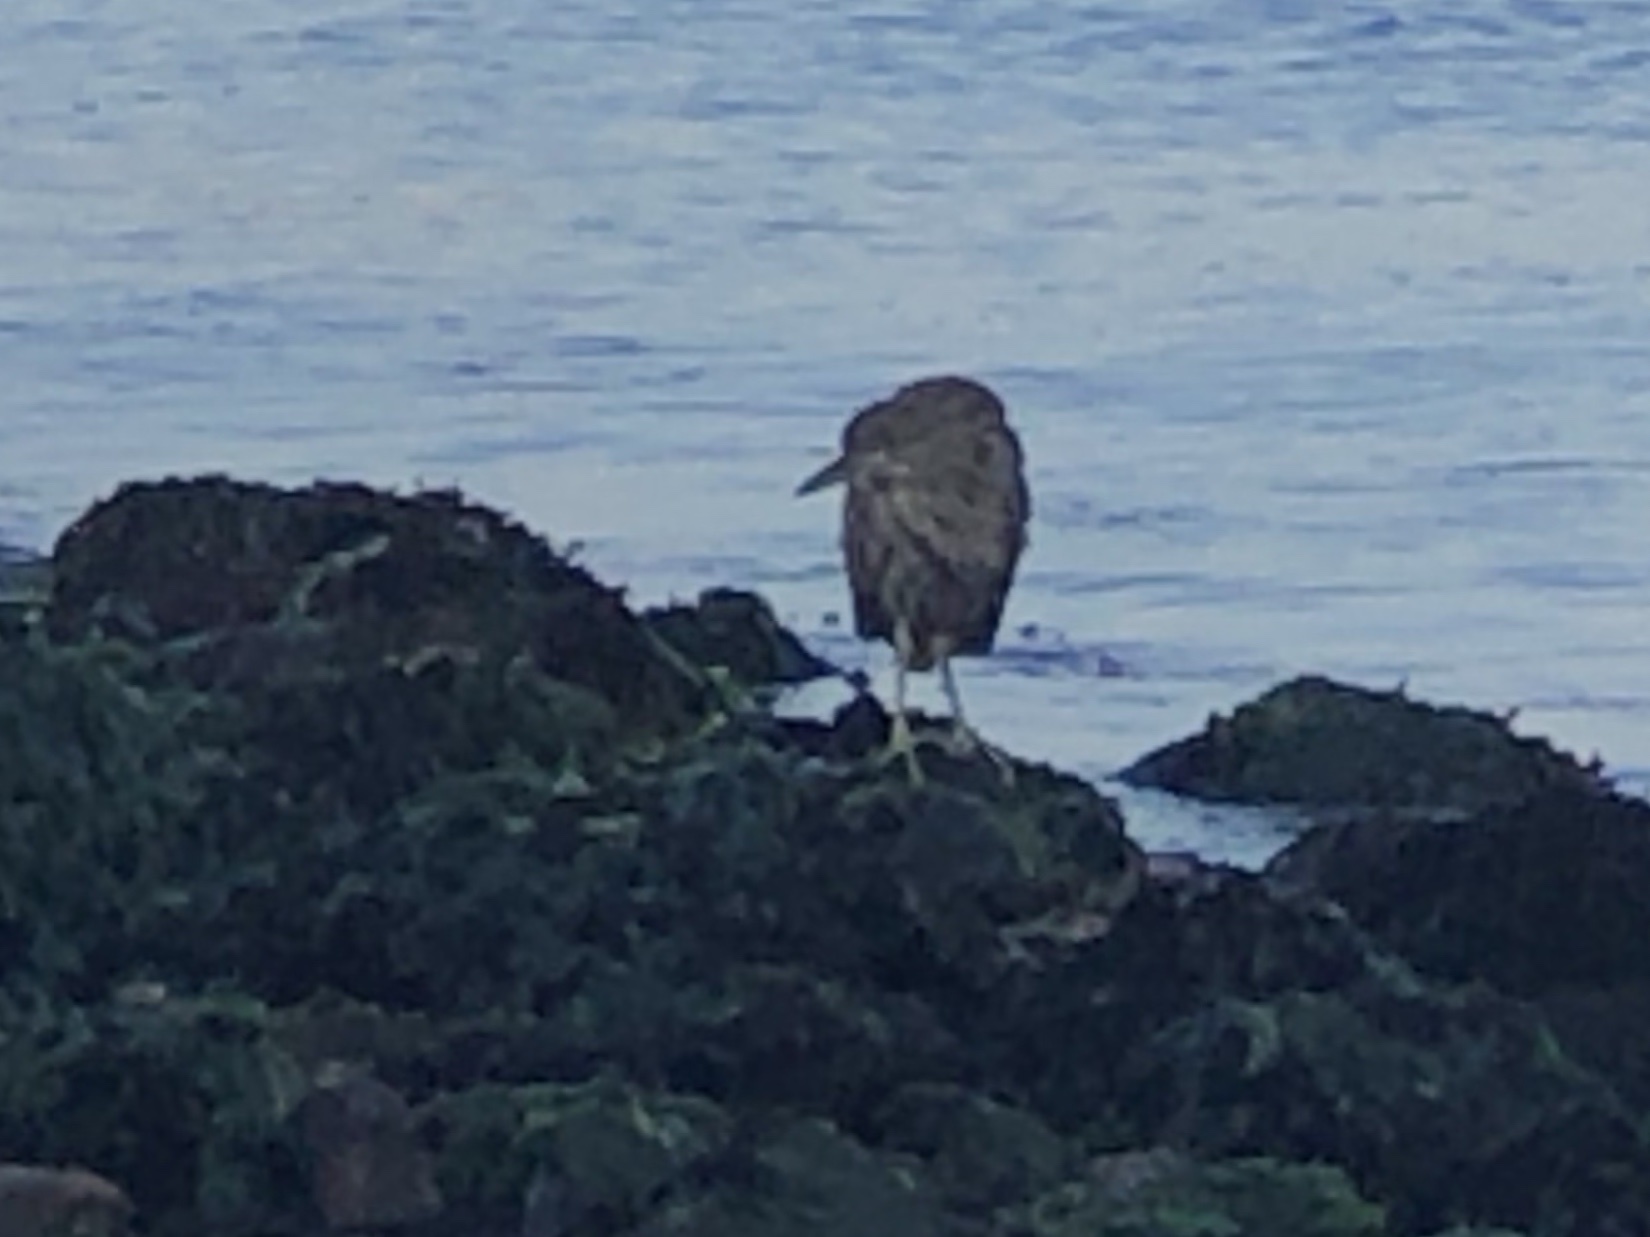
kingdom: Animalia
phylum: Chordata
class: Aves
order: Pelecaniformes
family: Ardeidae
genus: Nycticorax
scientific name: Nycticorax nycticorax
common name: Black-crowned night heron
